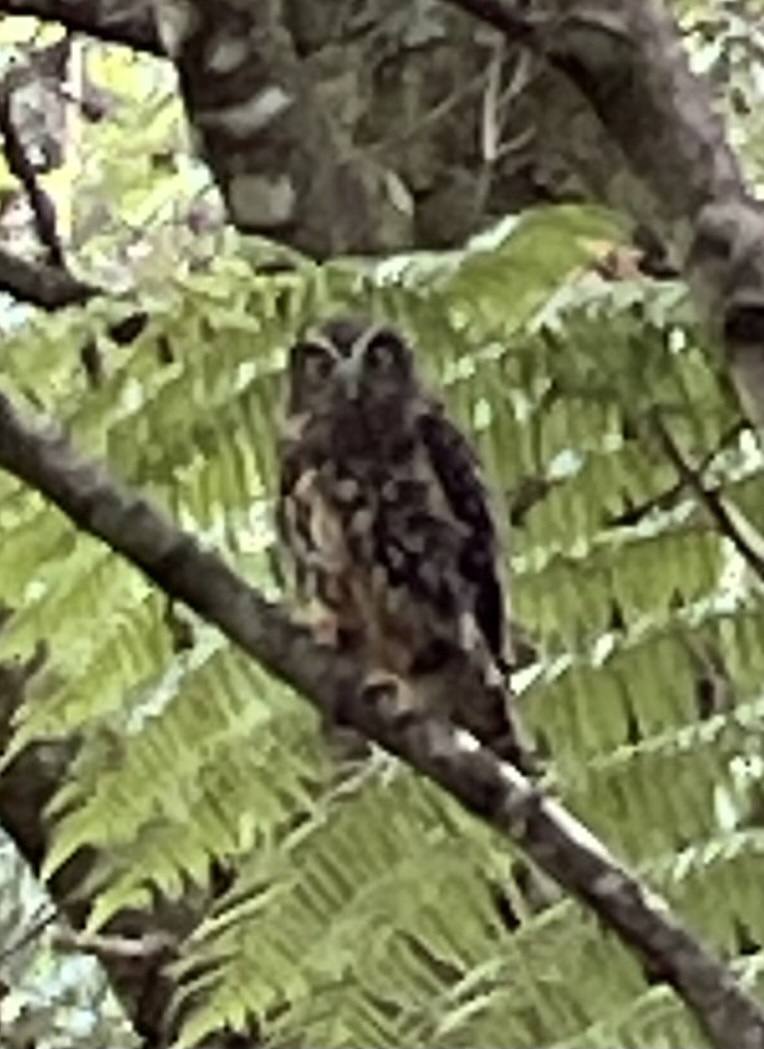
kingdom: Animalia
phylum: Chordata
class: Aves
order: Strigiformes
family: Strigidae
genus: Ninox
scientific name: Ninox novaeseelandiae
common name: Morepork
